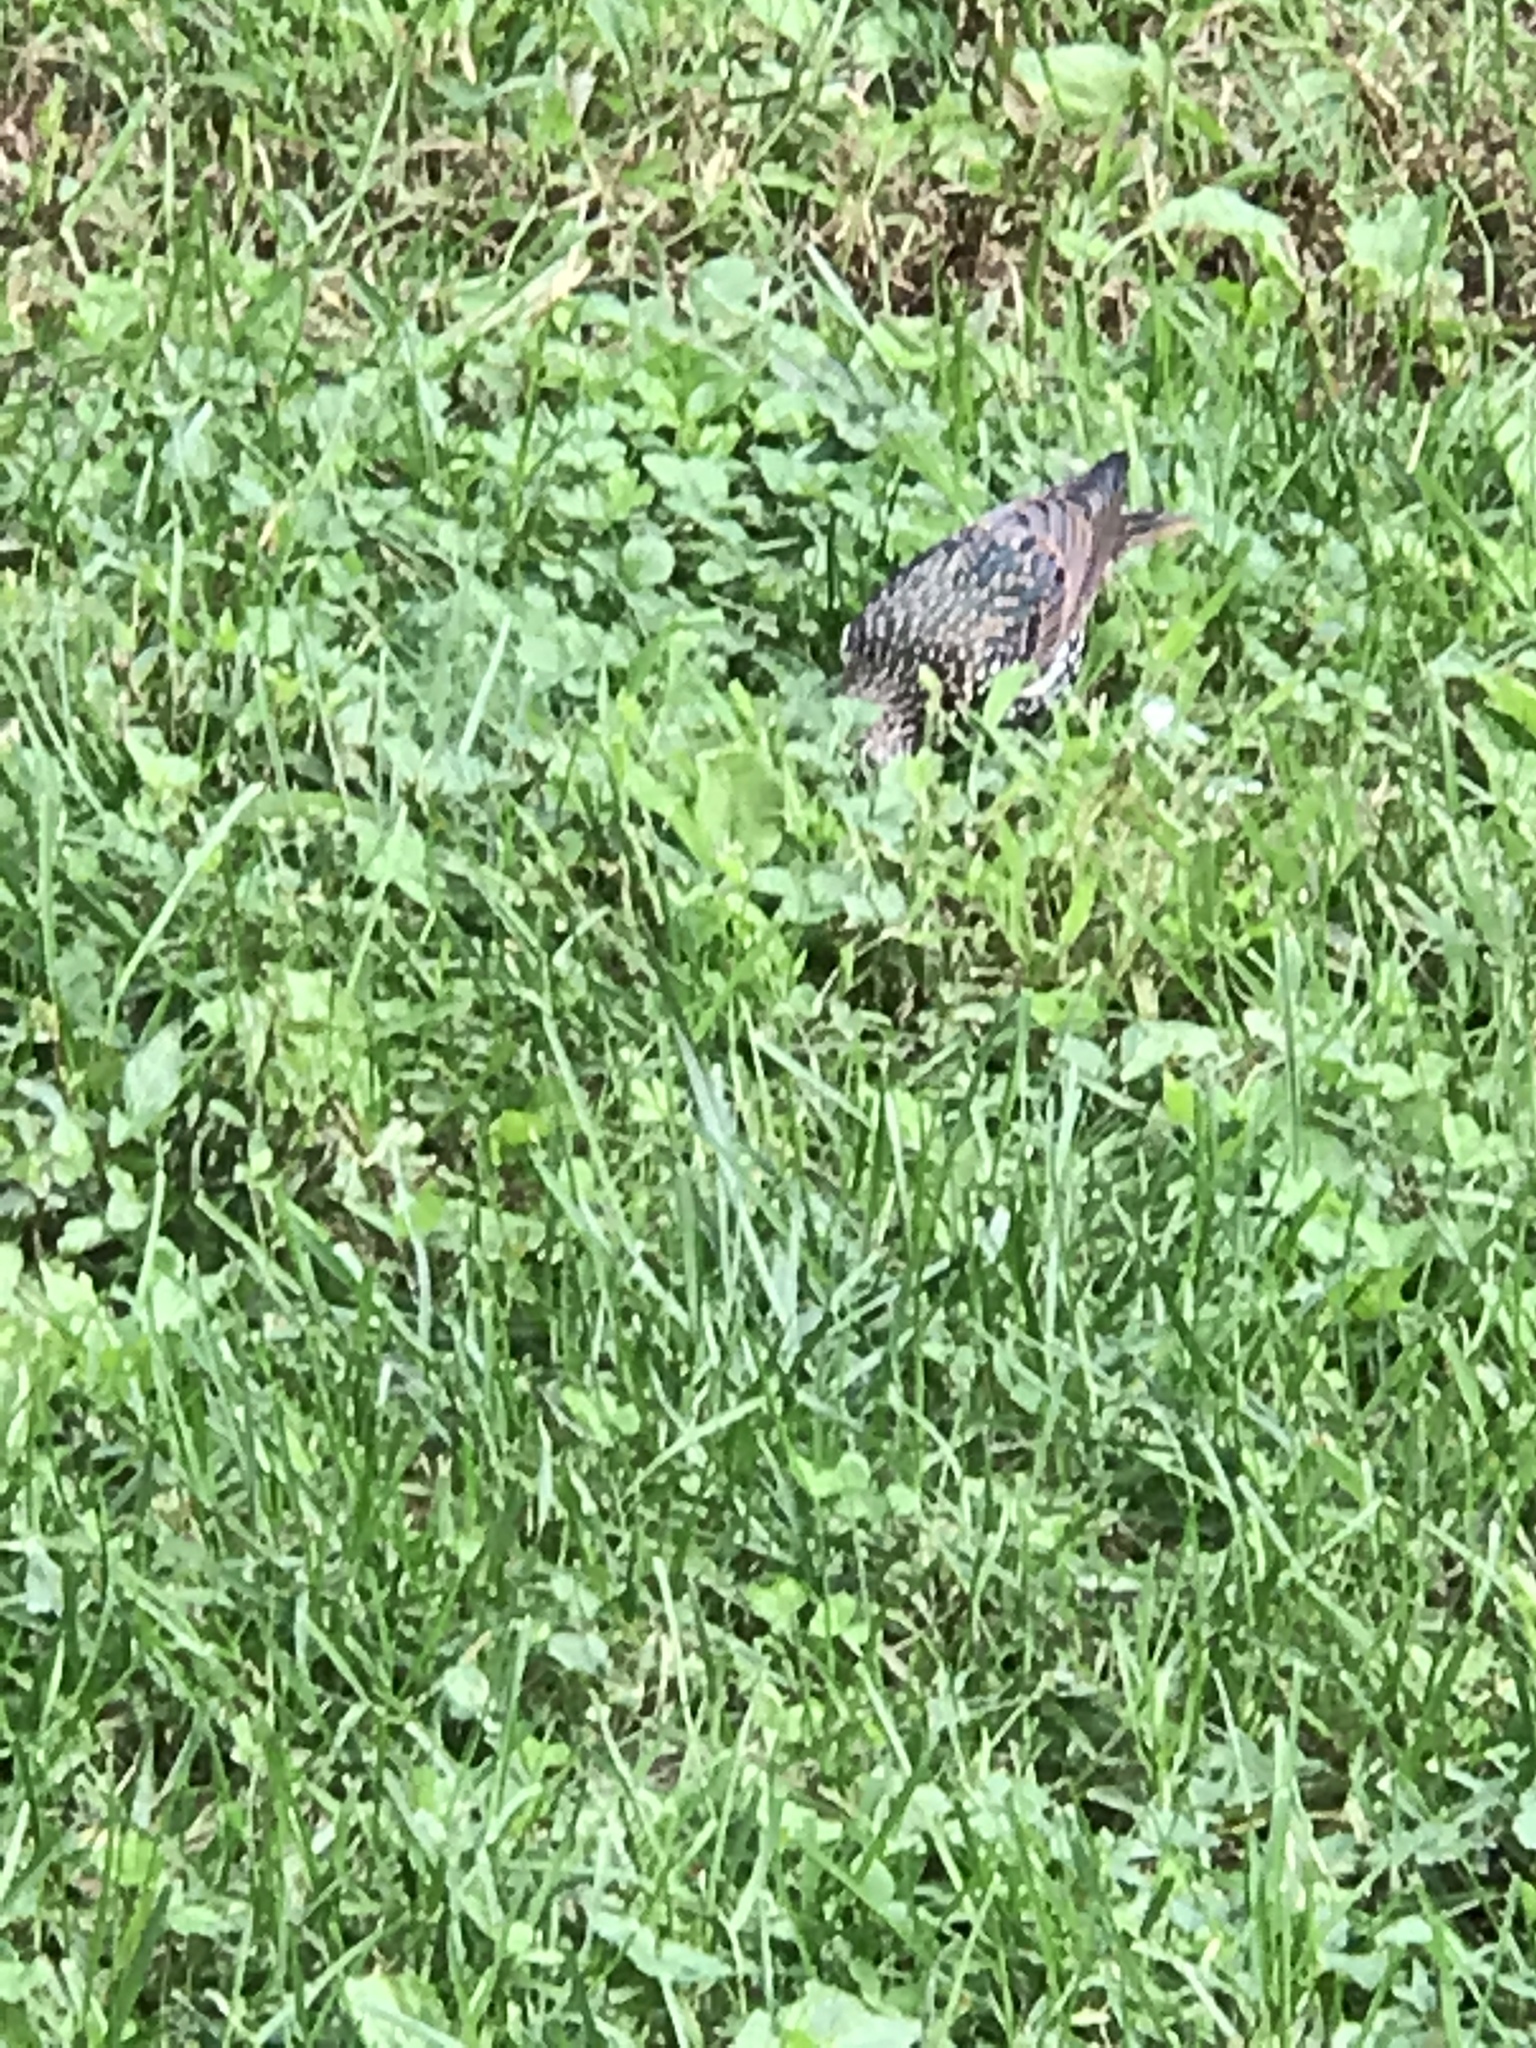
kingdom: Animalia
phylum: Chordata
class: Aves
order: Passeriformes
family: Sturnidae
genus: Sturnus
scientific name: Sturnus vulgaris
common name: Common starling
